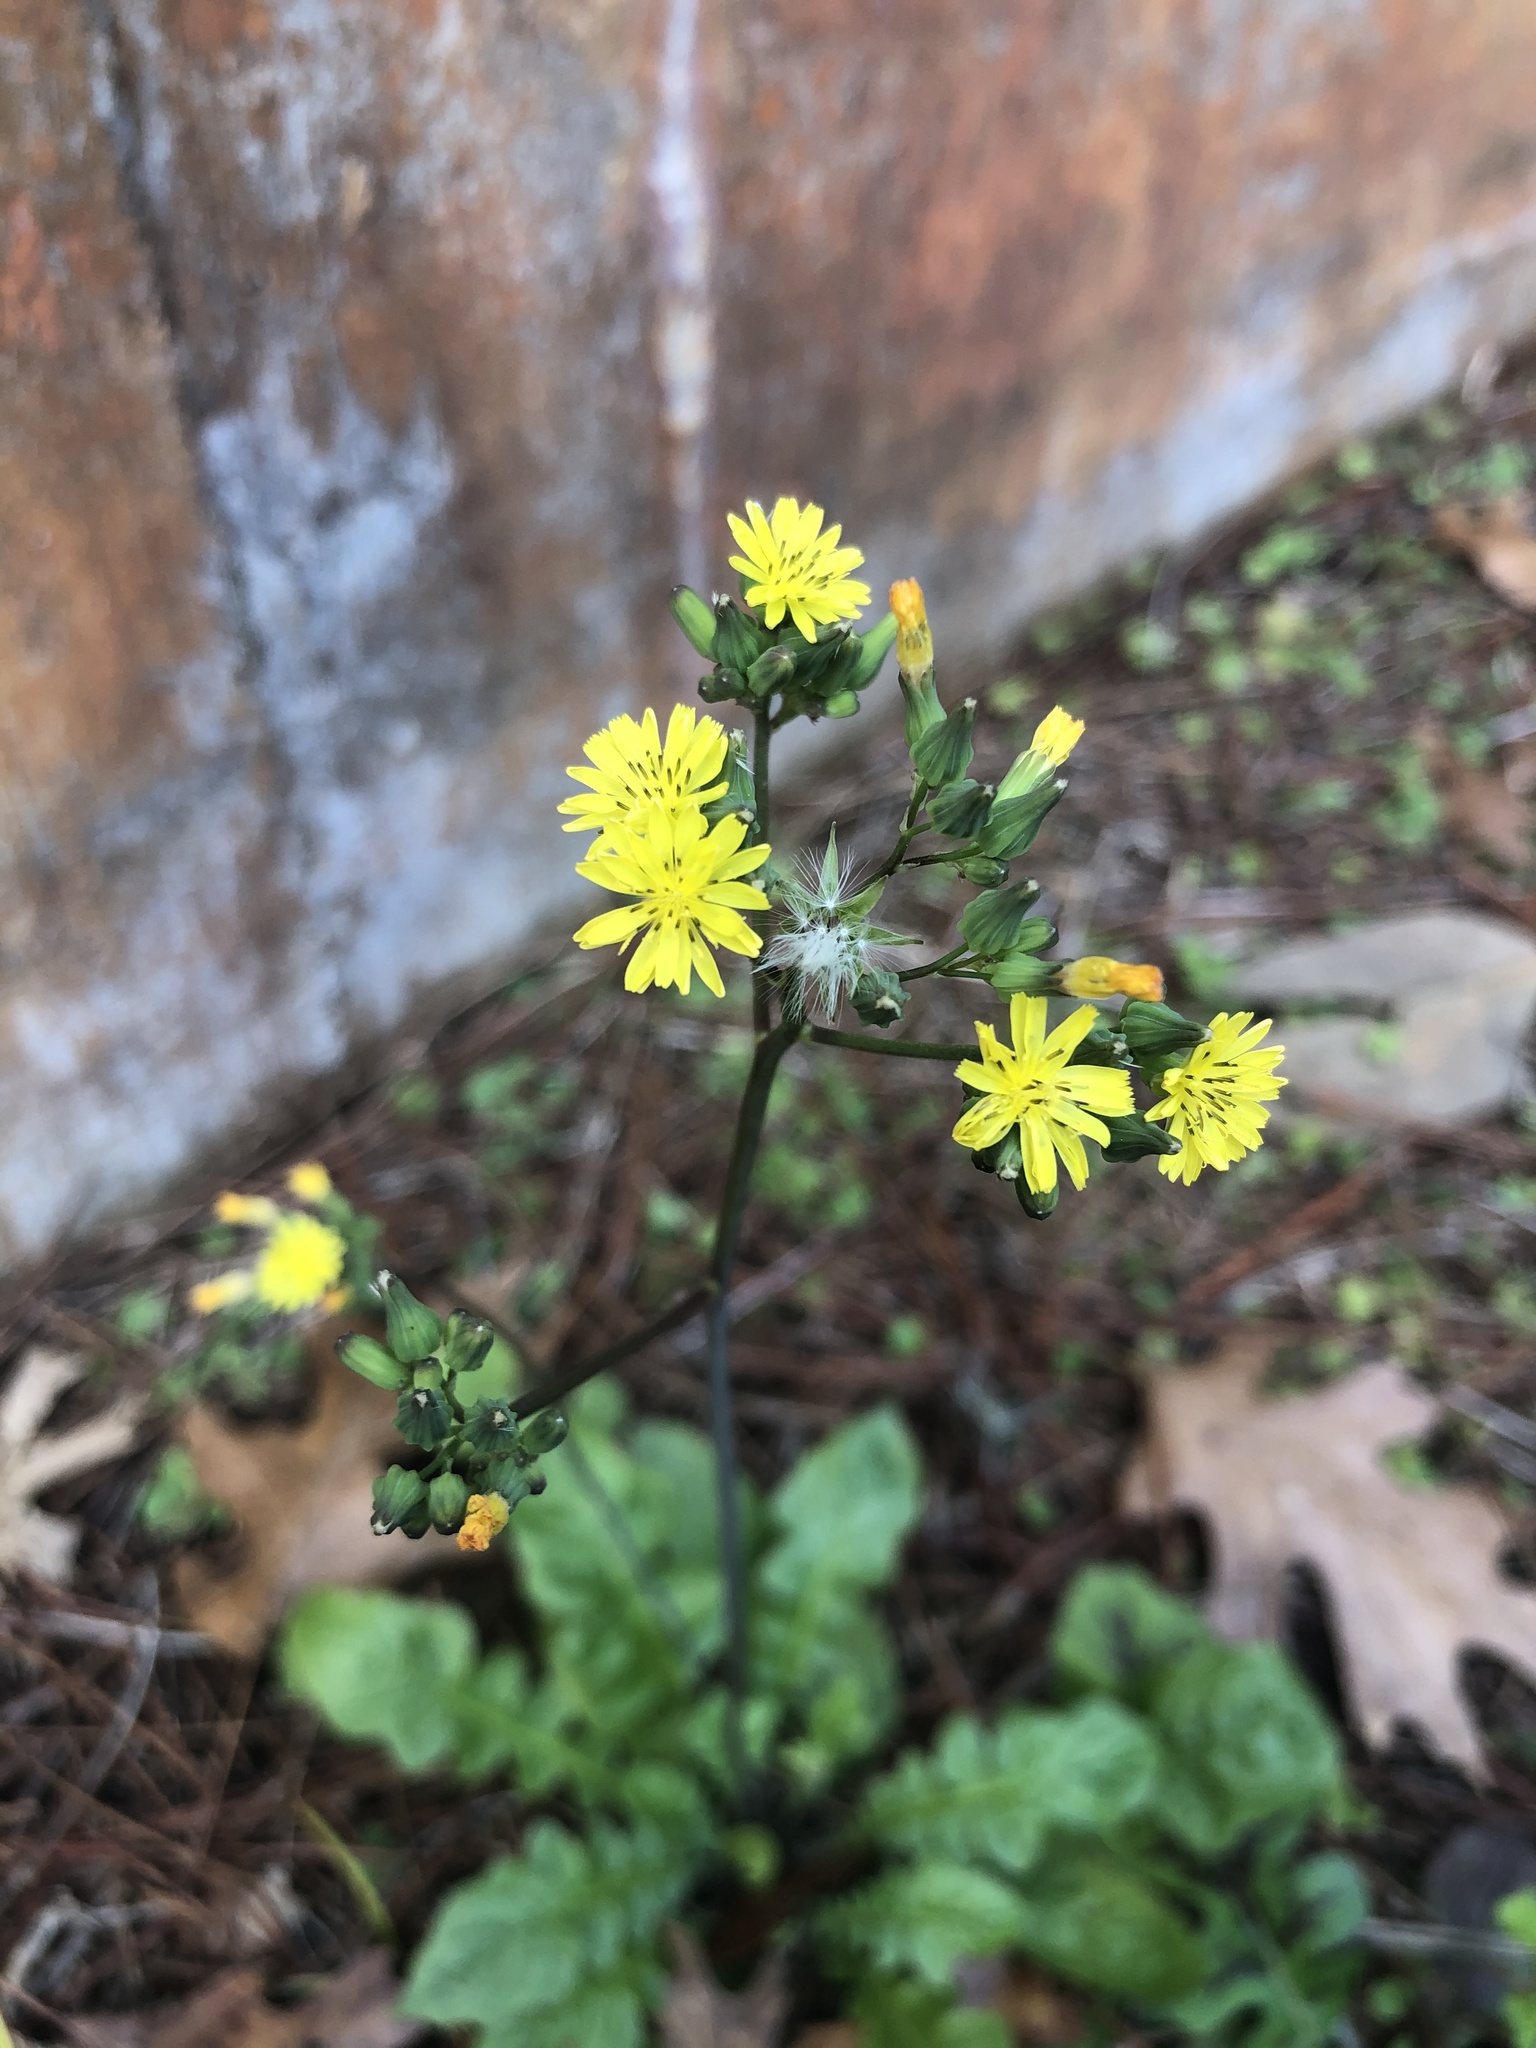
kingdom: Plantae
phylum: Tracheophyta
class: Magnoliopsida
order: Asterales
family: Asteraceae
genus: Youngia
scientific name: Youngia japonica
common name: Oriental false hawksbeard
